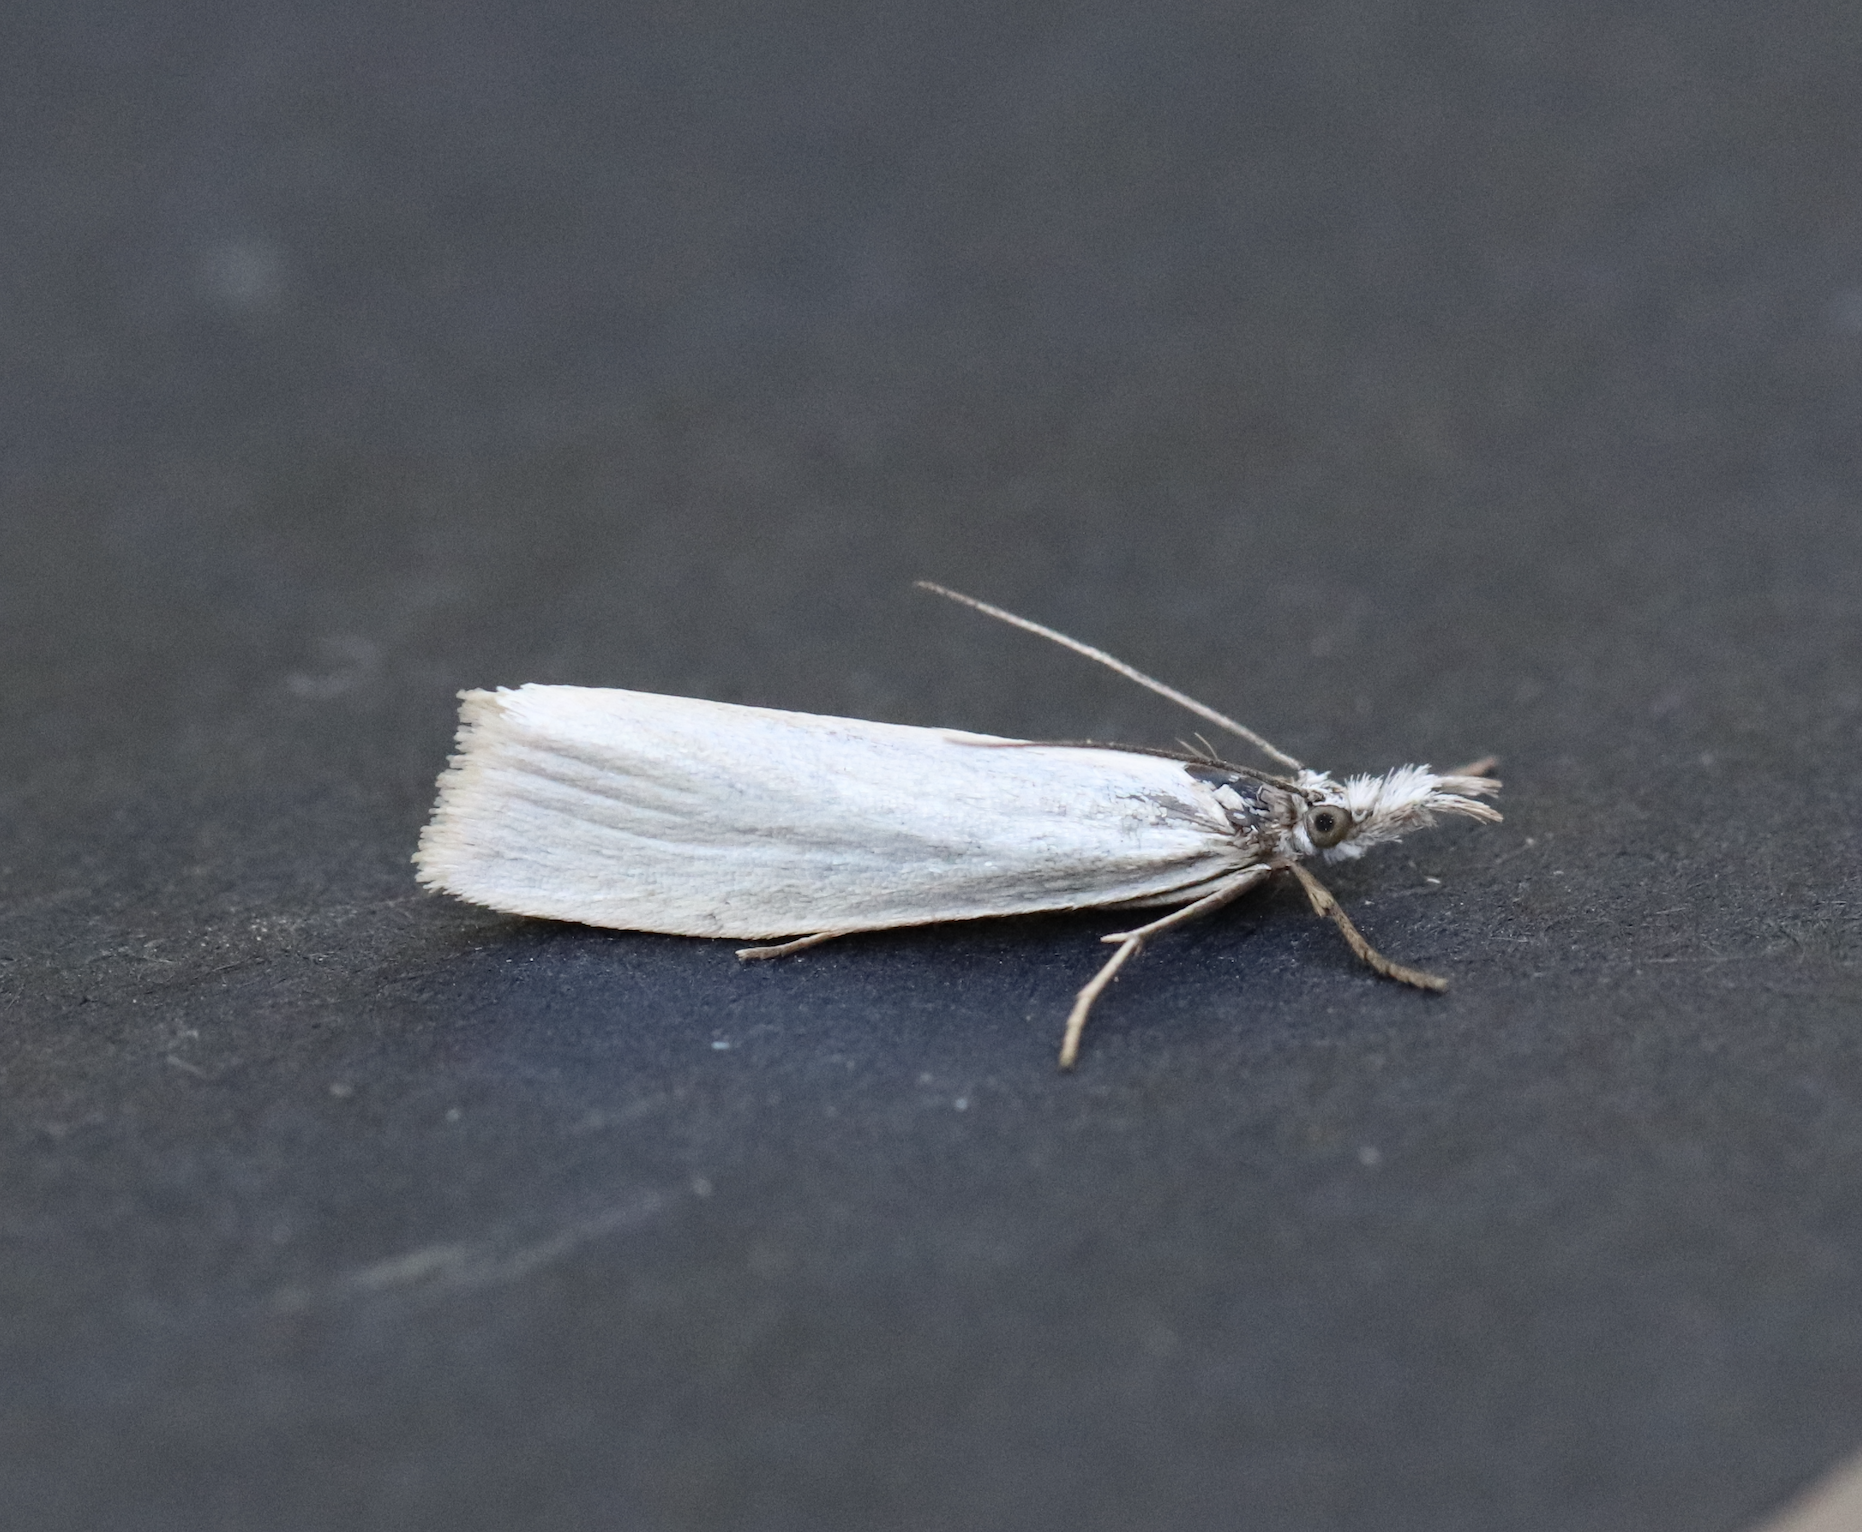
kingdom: Animalia
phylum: Arthropoda
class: Insecta
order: Lepidoptera
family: Crambidae
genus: Crambus
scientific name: Crambus perlellus
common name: Yellow satin veneer
